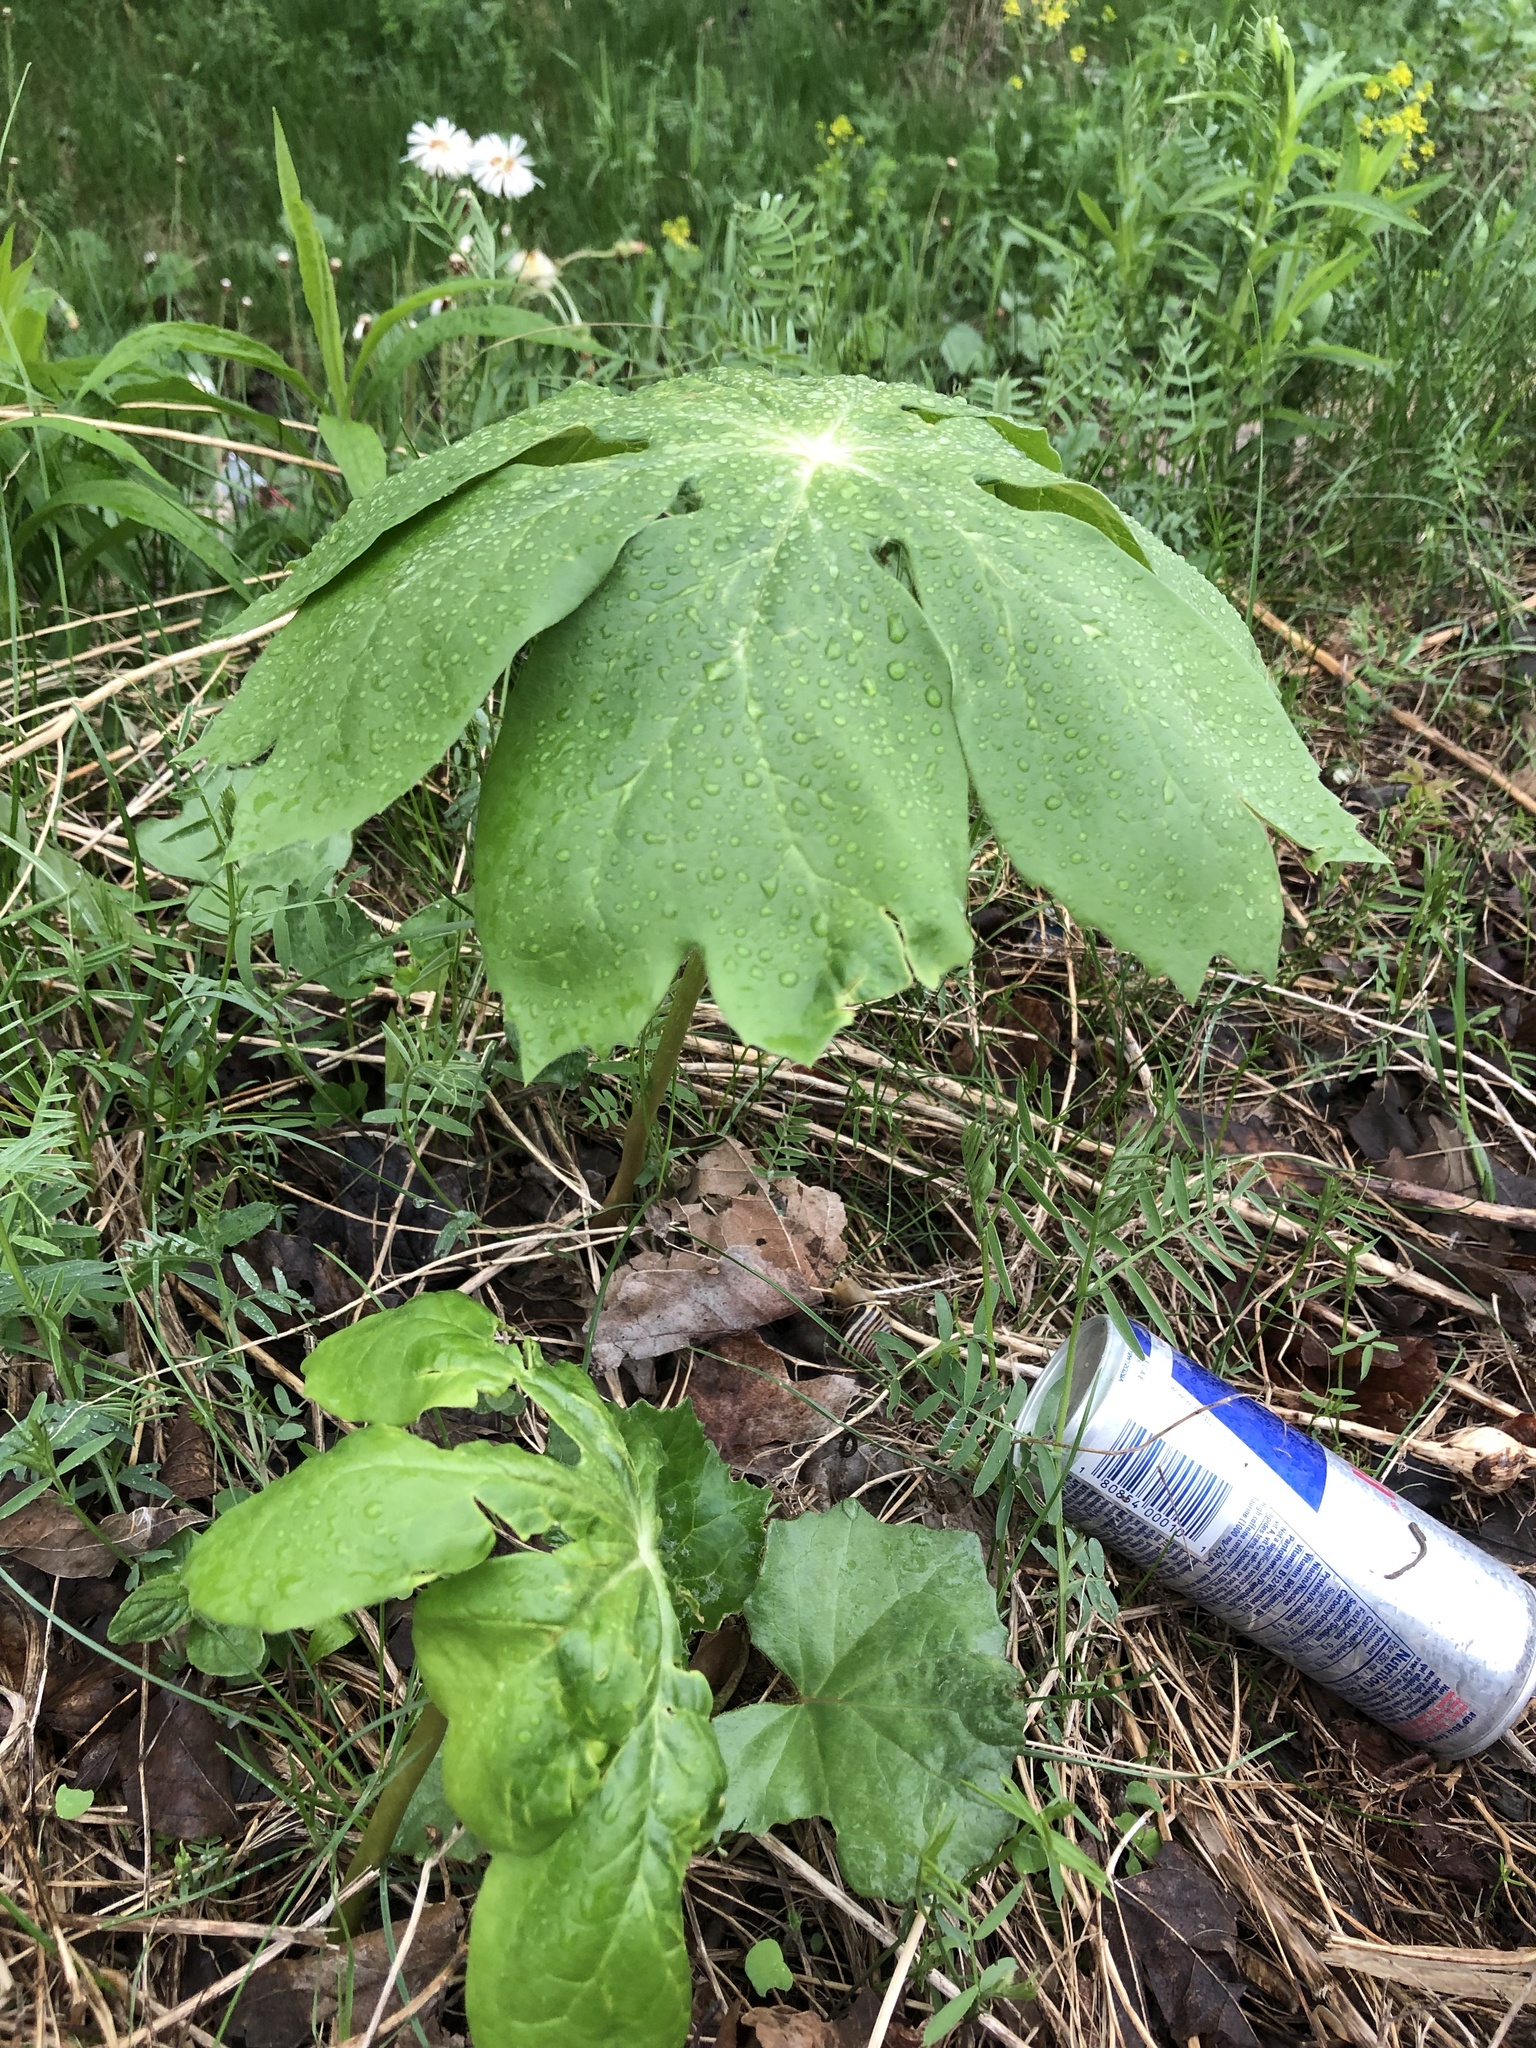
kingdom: Plantae
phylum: Tracheophyta
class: Magnoliopsida
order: Ranunculales
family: Berberidaceae
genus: Podophyllum
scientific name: Podophyllum peltatum
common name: Wild mandrake
